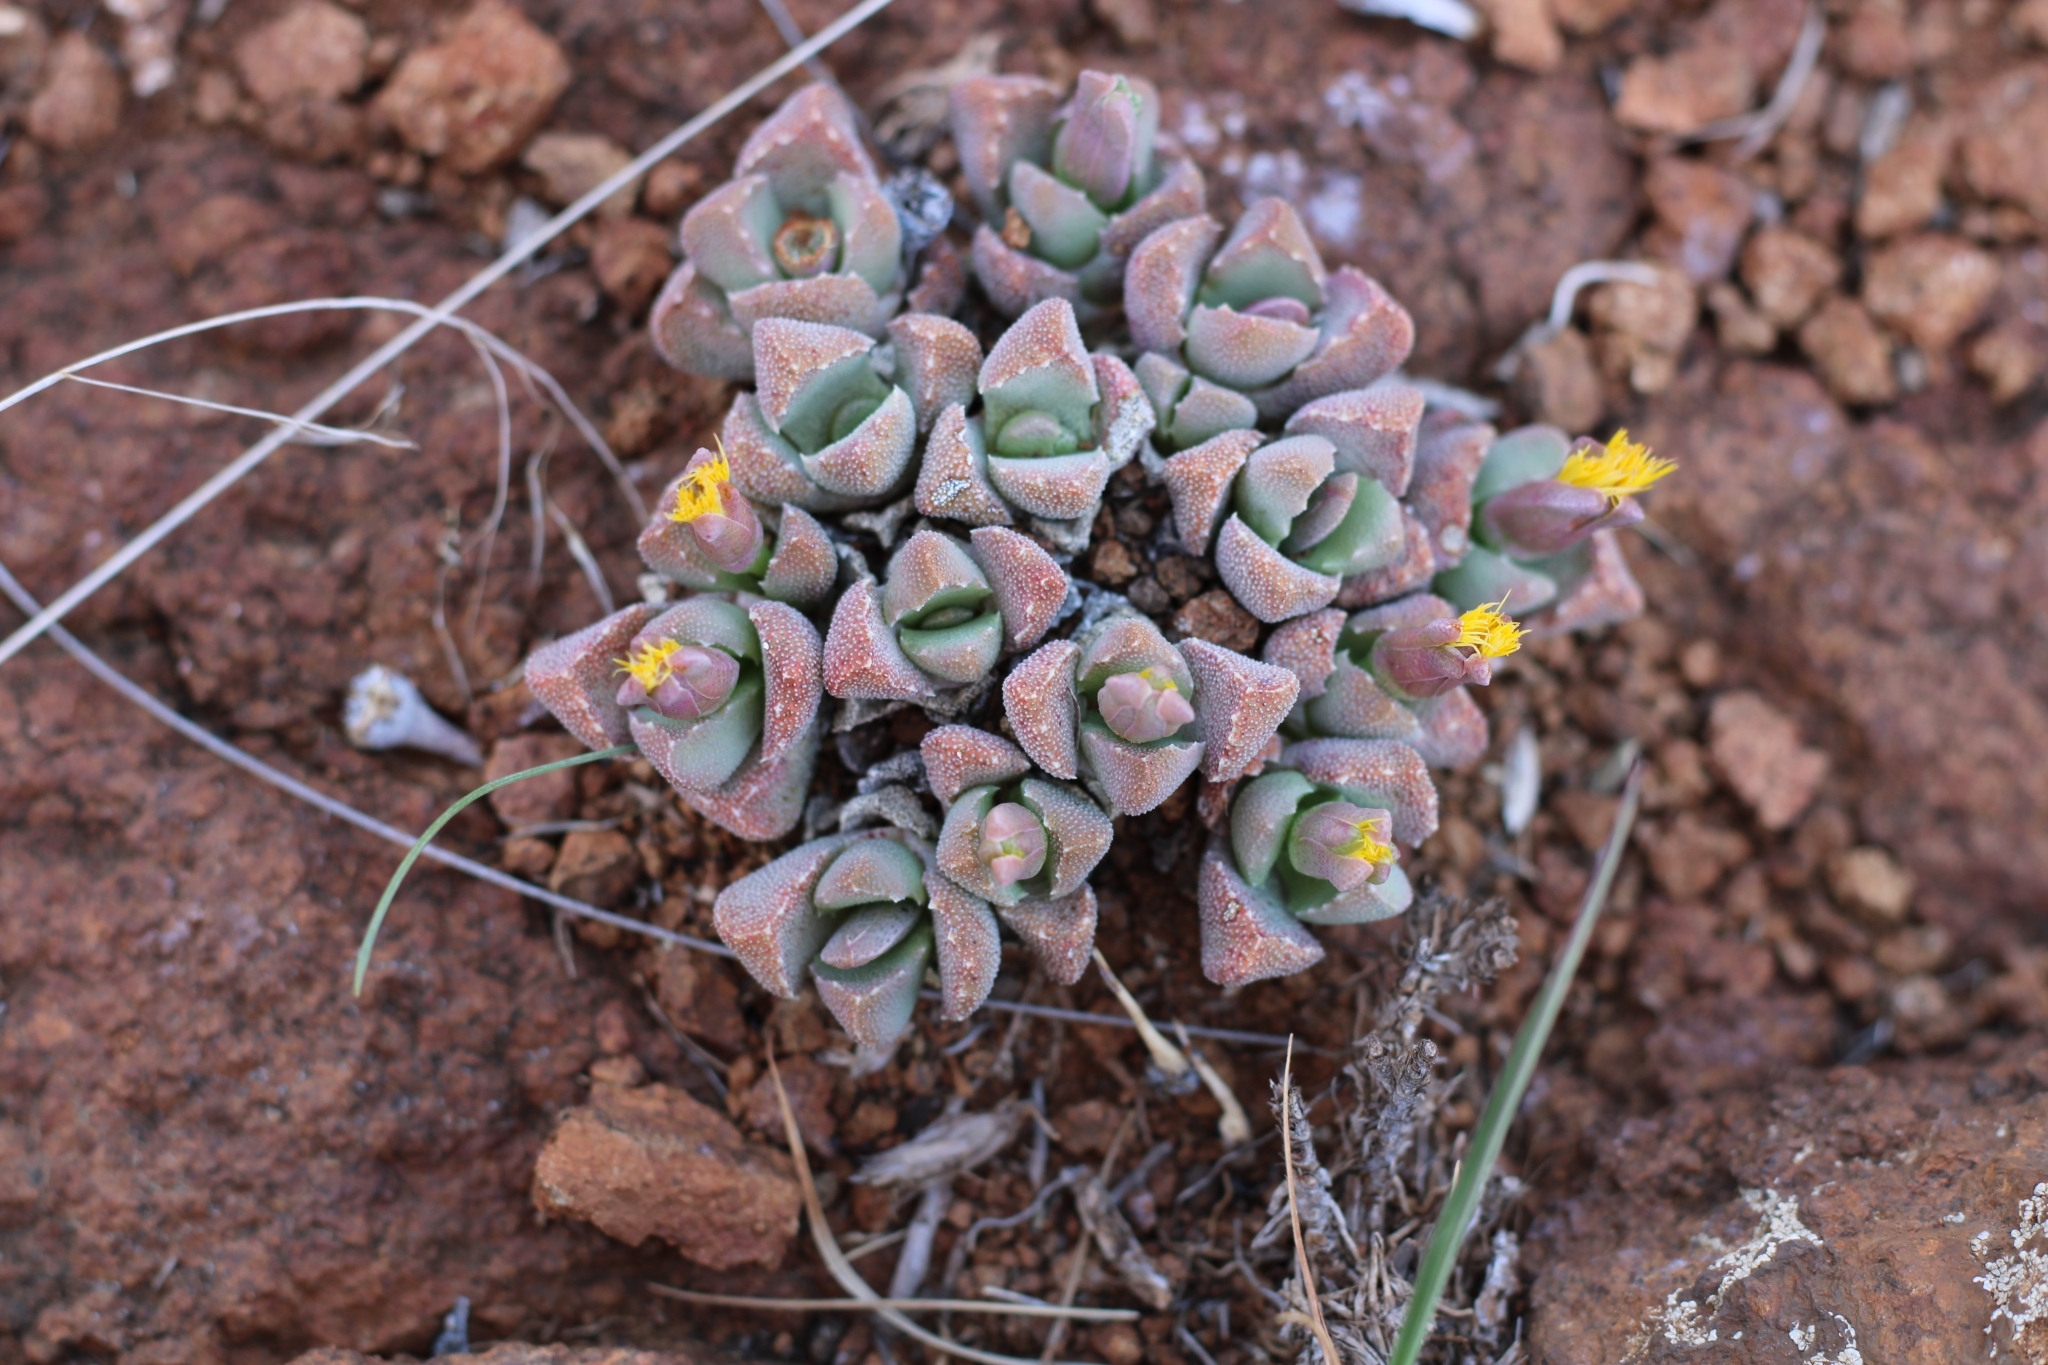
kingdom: Plantae
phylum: Tracheophyta
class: Magnoliopsida
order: Caryophyllales
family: Aizoaceae
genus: Stomatium
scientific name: Stomatium braunsii
